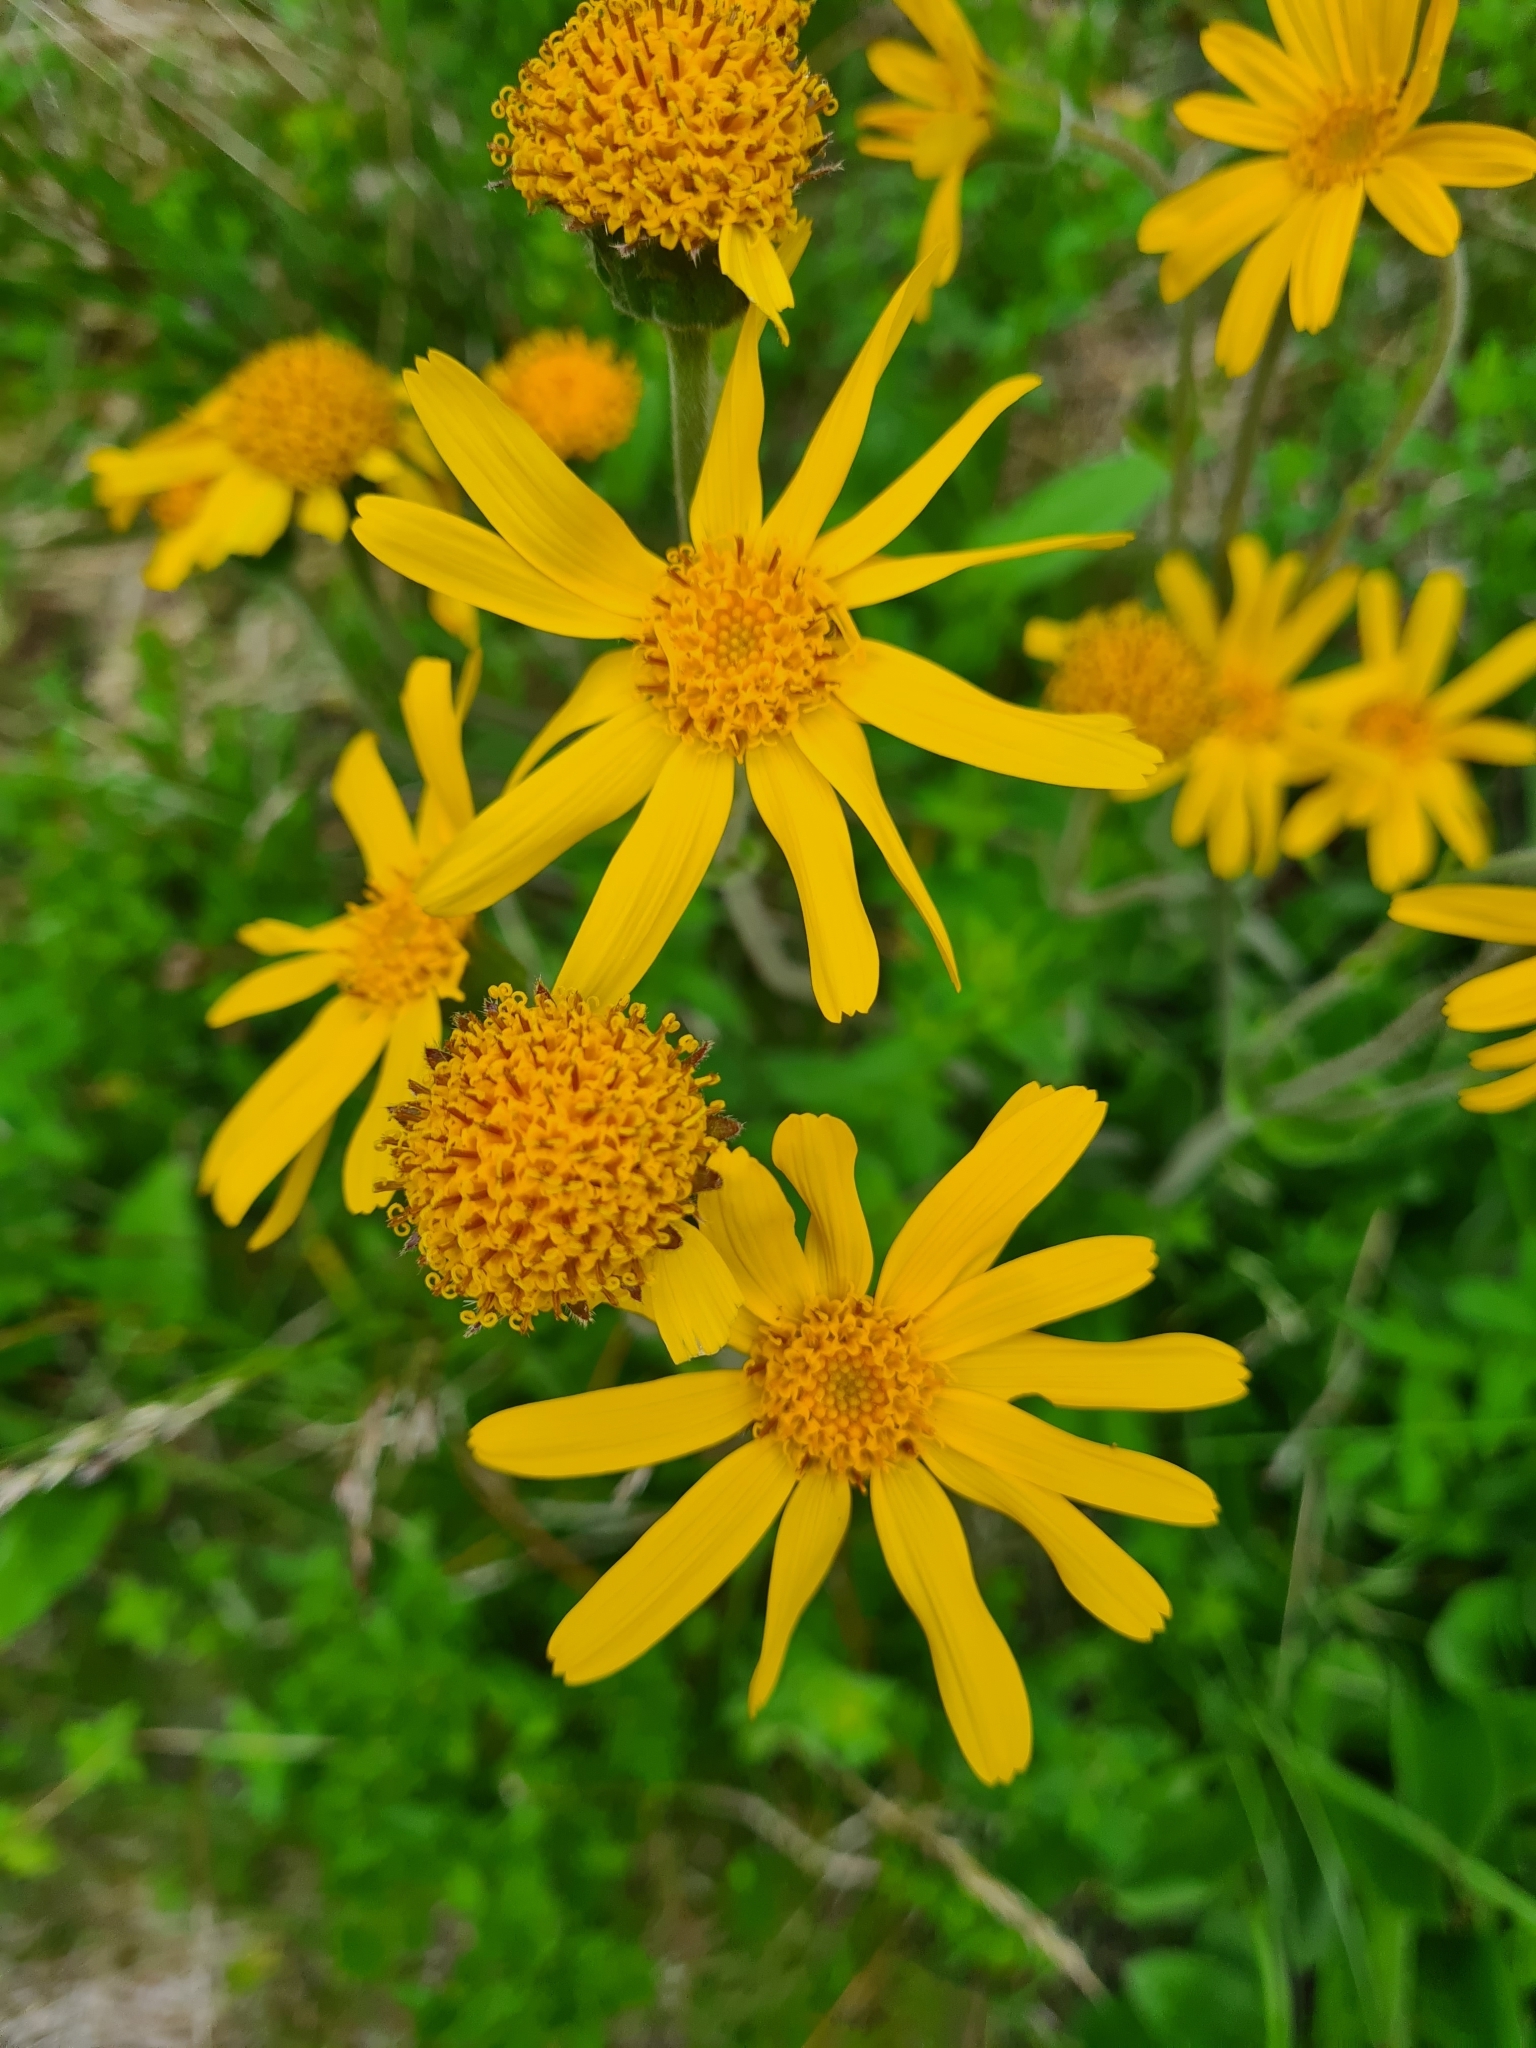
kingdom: Plantae
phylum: Tracheophyta
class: Magnoliopsida
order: Asterales
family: Asteraceae
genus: Arnica
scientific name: Arnica montana
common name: Leopard's bane
